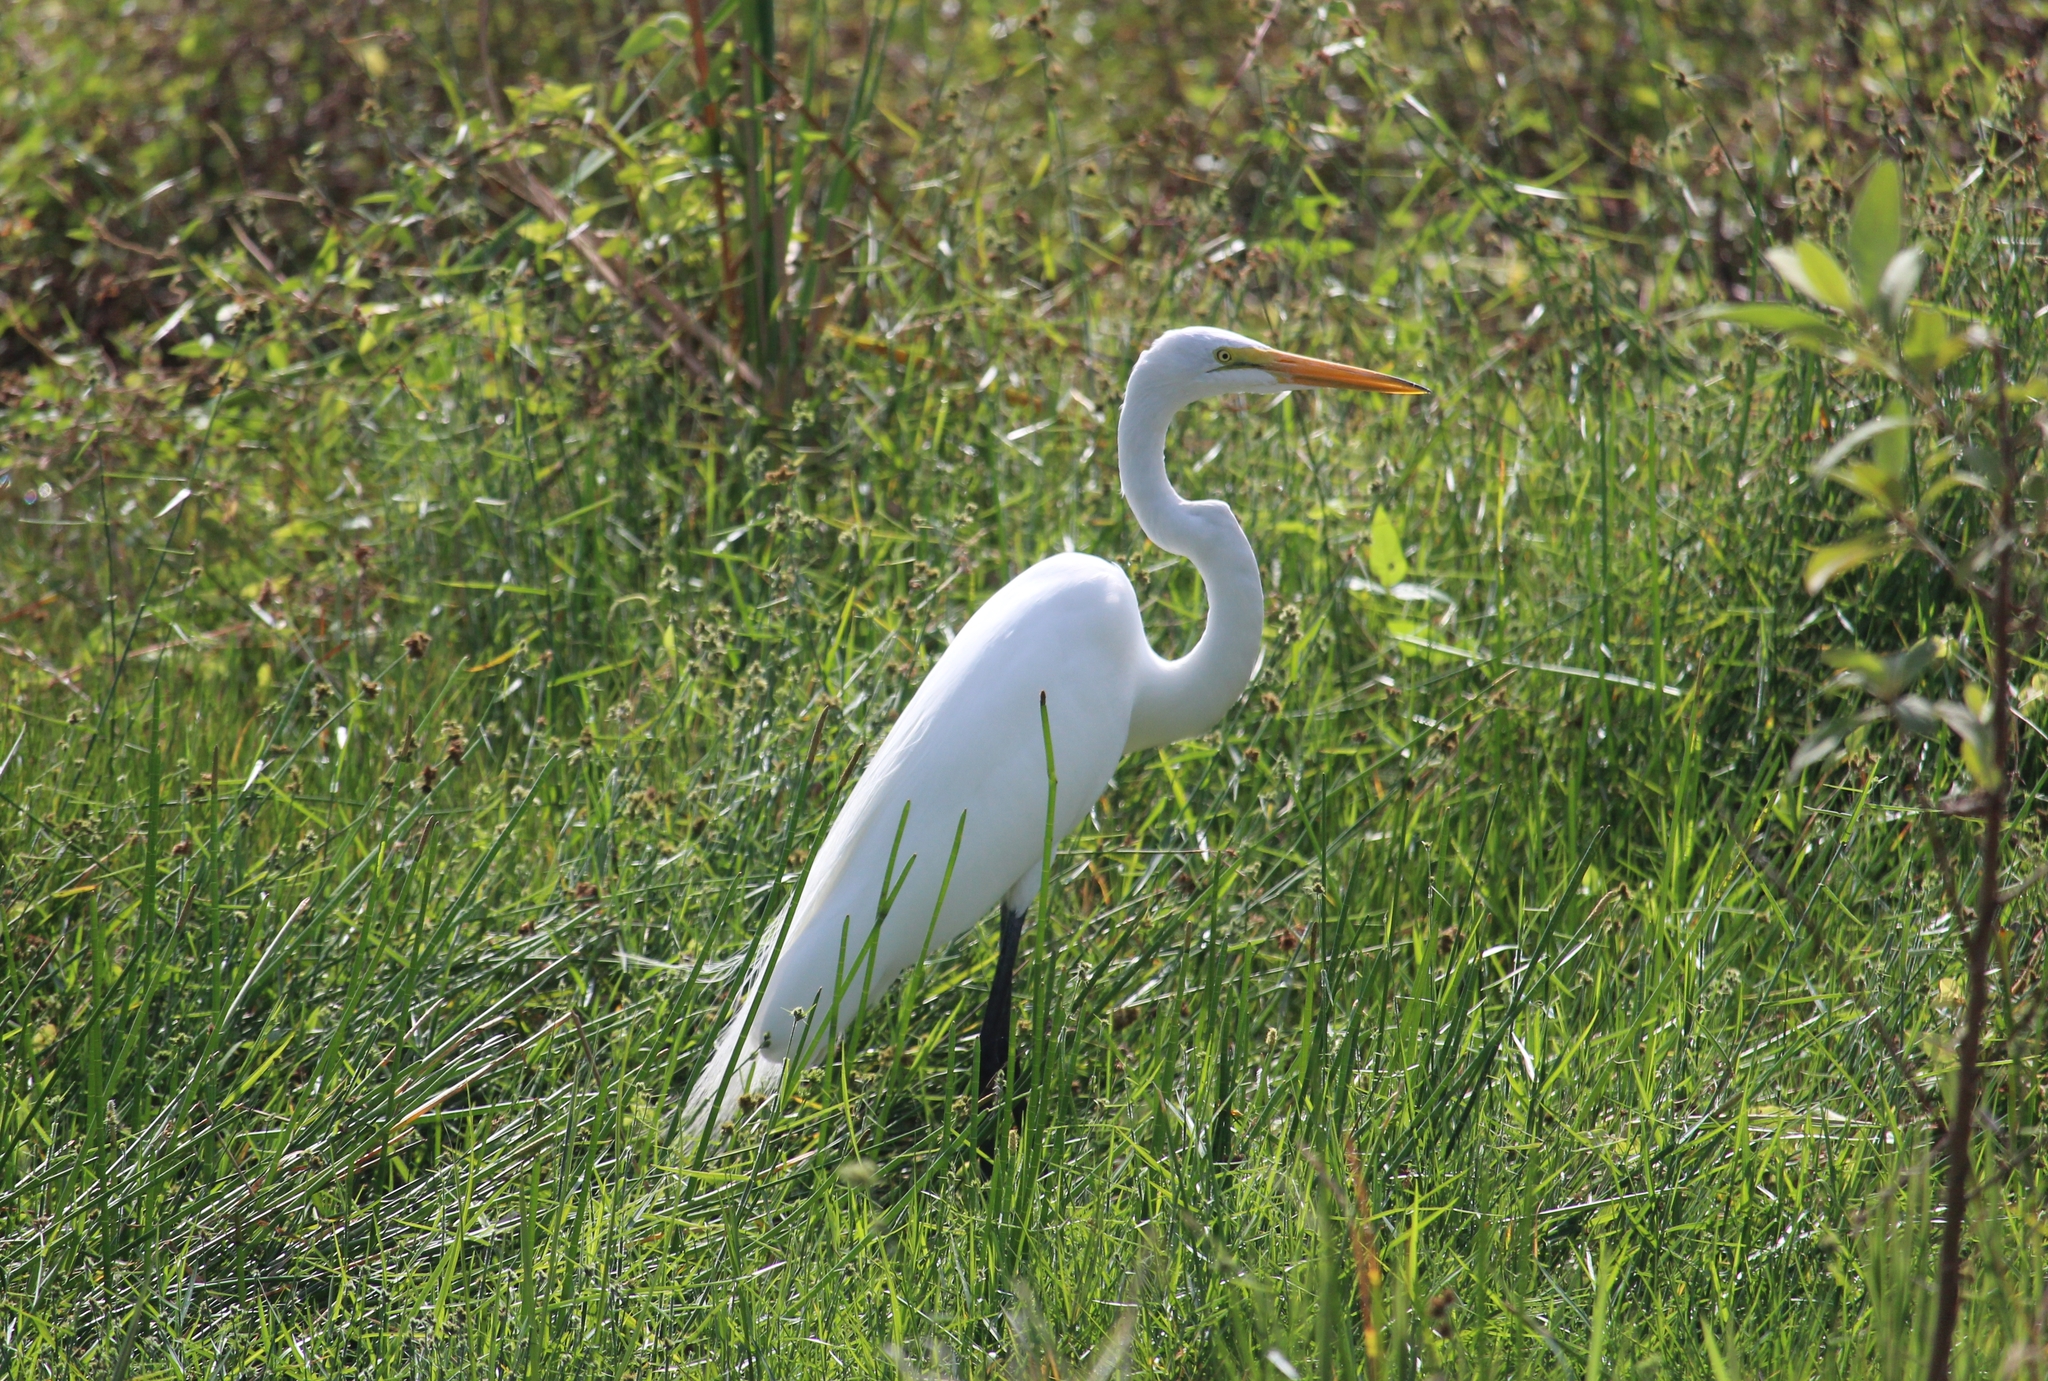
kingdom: Animalia
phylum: Chordata
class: Aves
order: Pelecaniformes
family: Ardeidae
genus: Ardea
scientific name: Ardea alba
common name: Great egret
